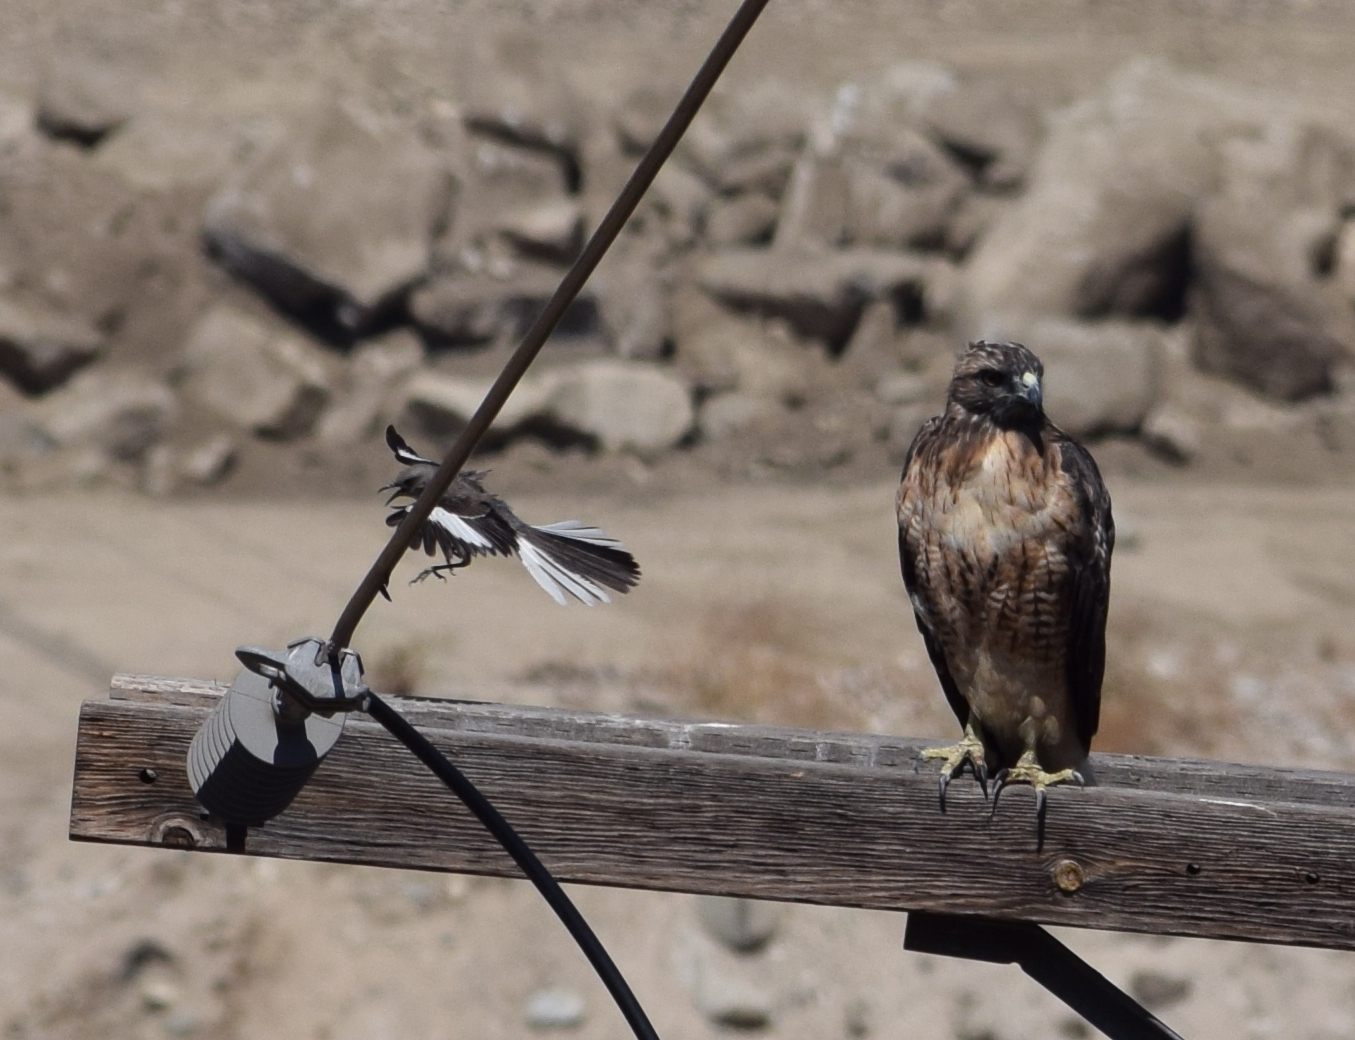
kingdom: Animalia
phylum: Chordata
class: Aves
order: Passeriformes
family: Mimidae
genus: Mimus
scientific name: Mimus polyglottos
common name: Northern mockingbird
